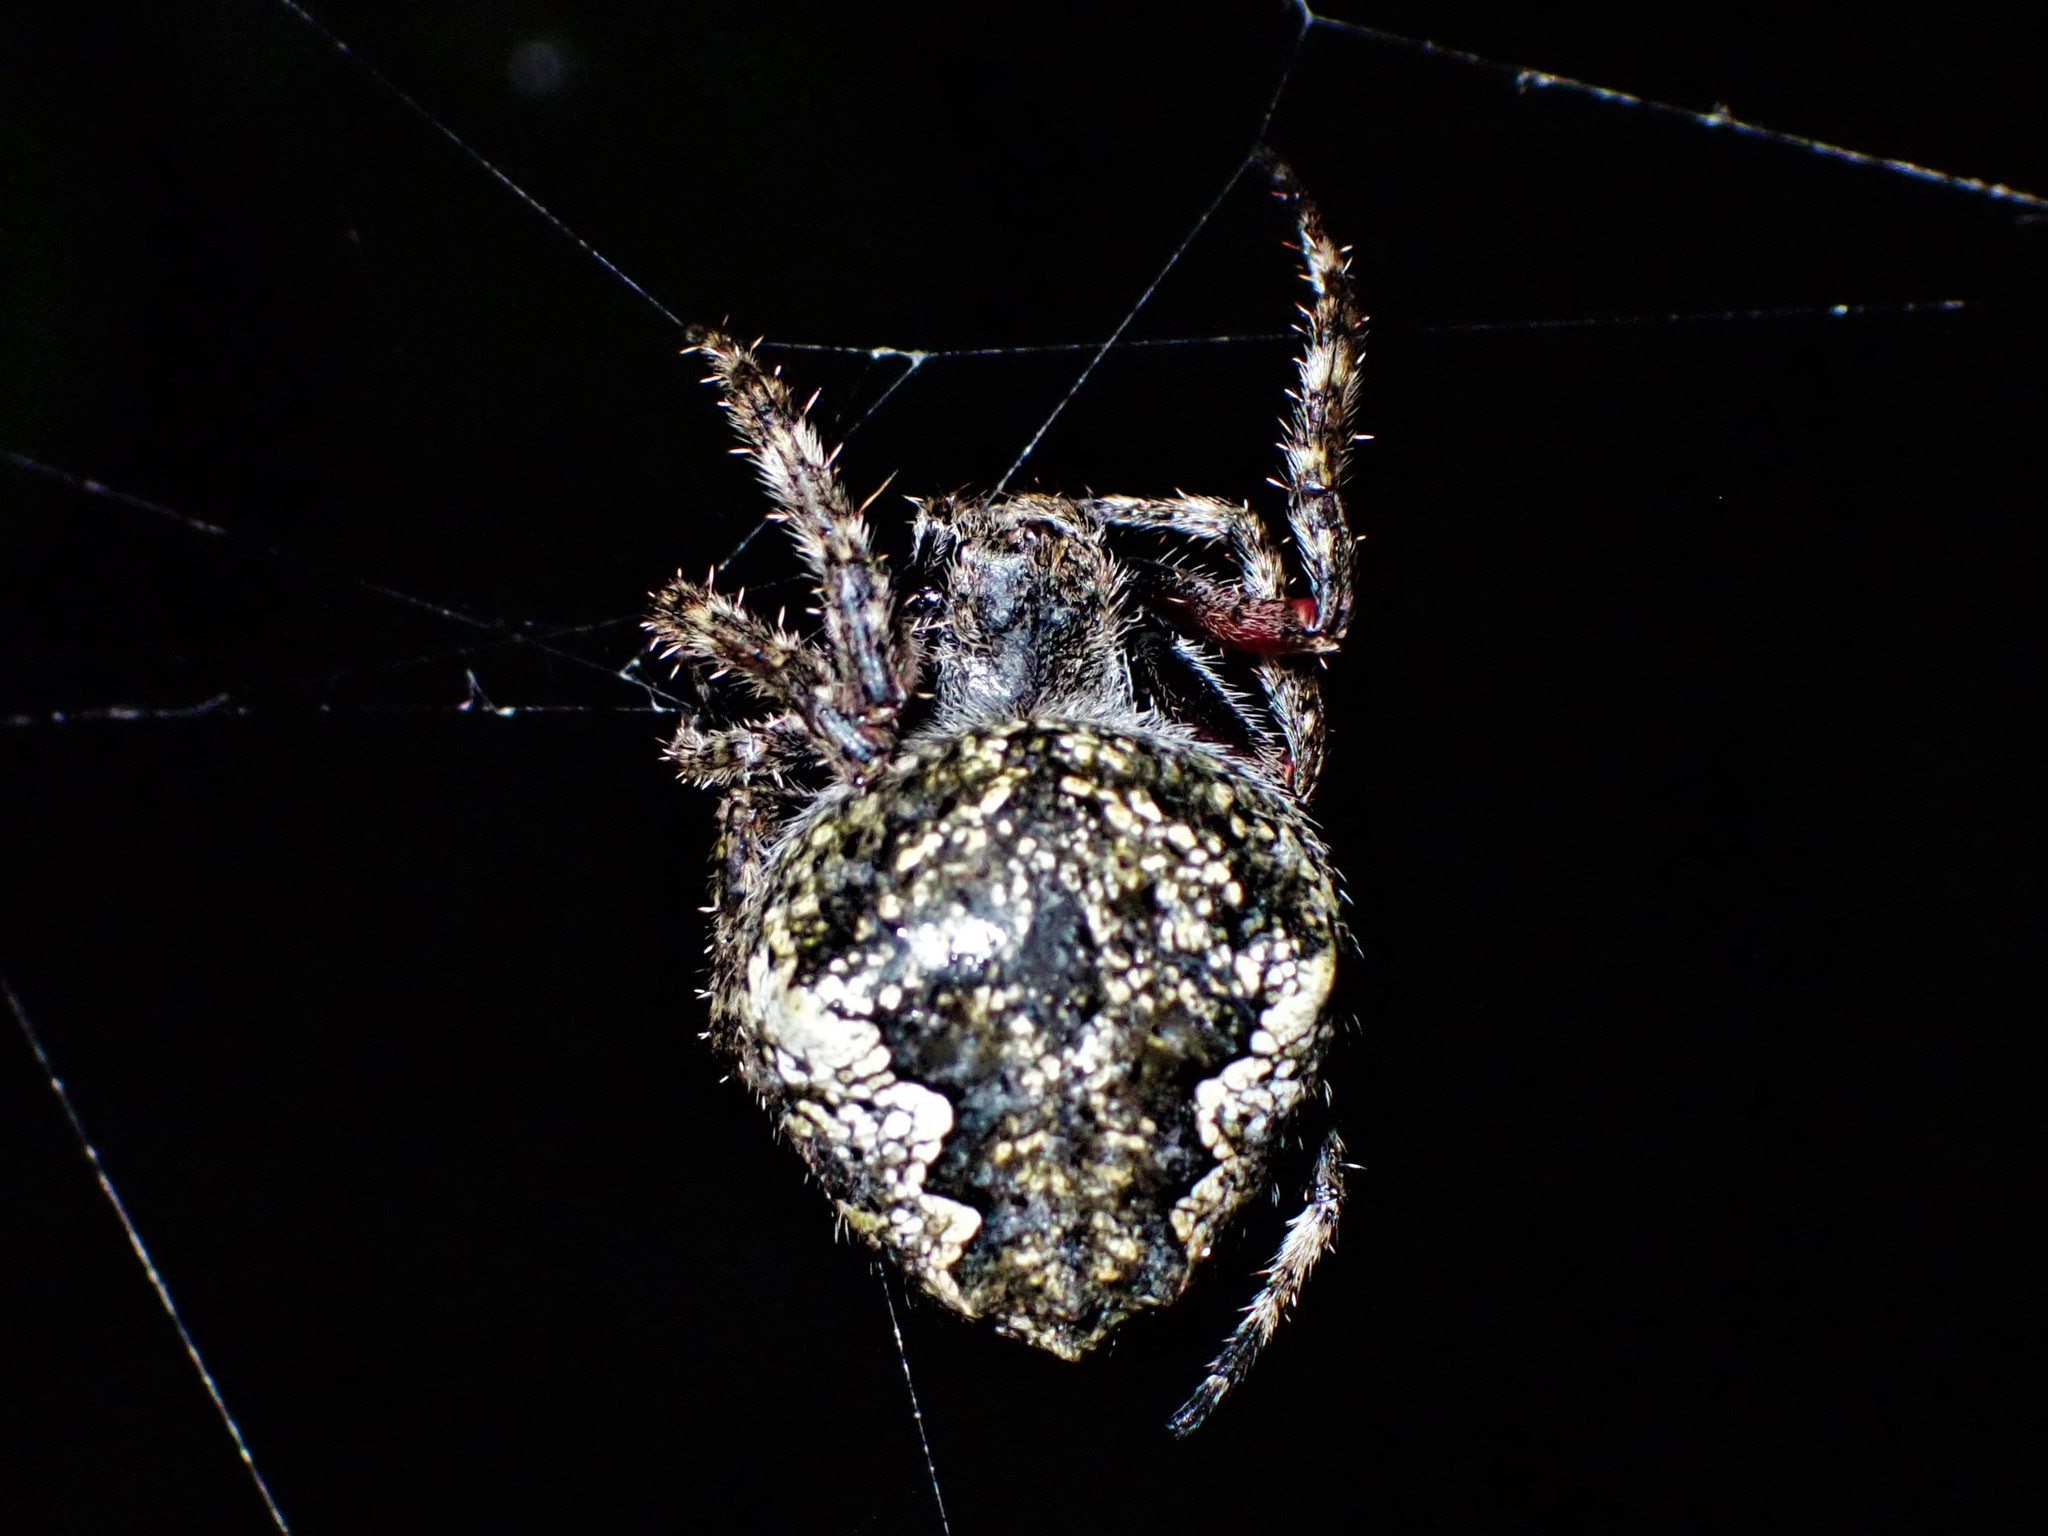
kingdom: Animalia
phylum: Arthropoda
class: Arachnida
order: Araneae
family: Araneidae
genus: Eriophora
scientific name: Eriophora pustulosa
